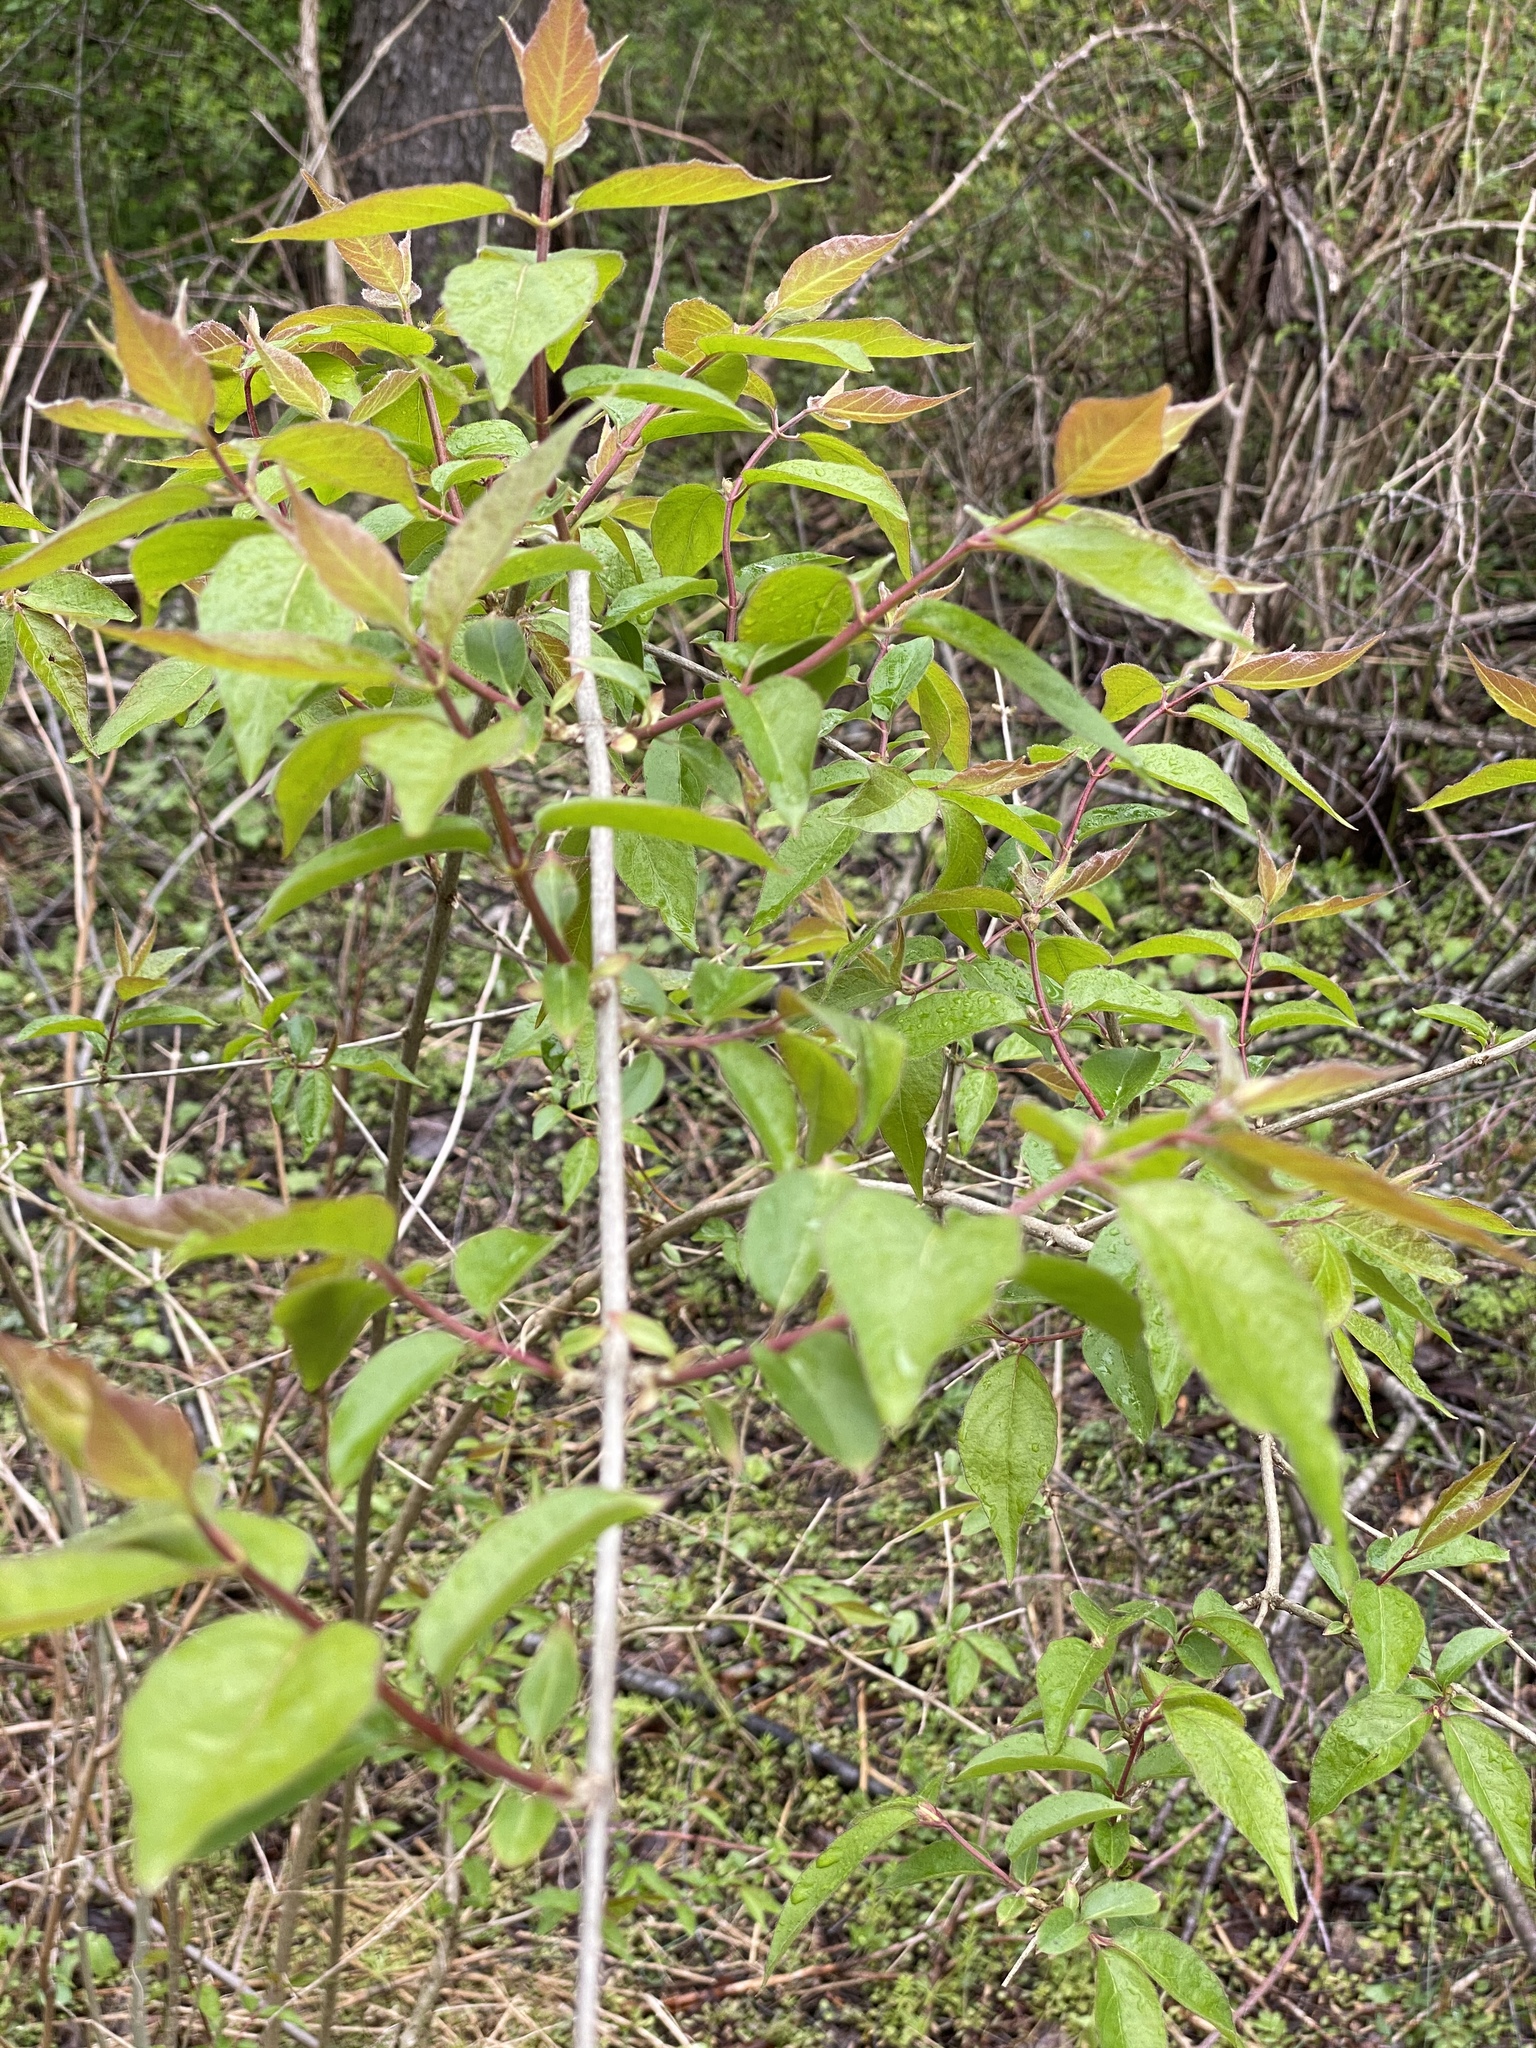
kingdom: Plantae
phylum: Tracheophyta
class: Magnoliopsida
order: Dipsacales
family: Caprifoliaceae
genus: Lonicera
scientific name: Lonicera maackii
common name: Amur honeysuckle
